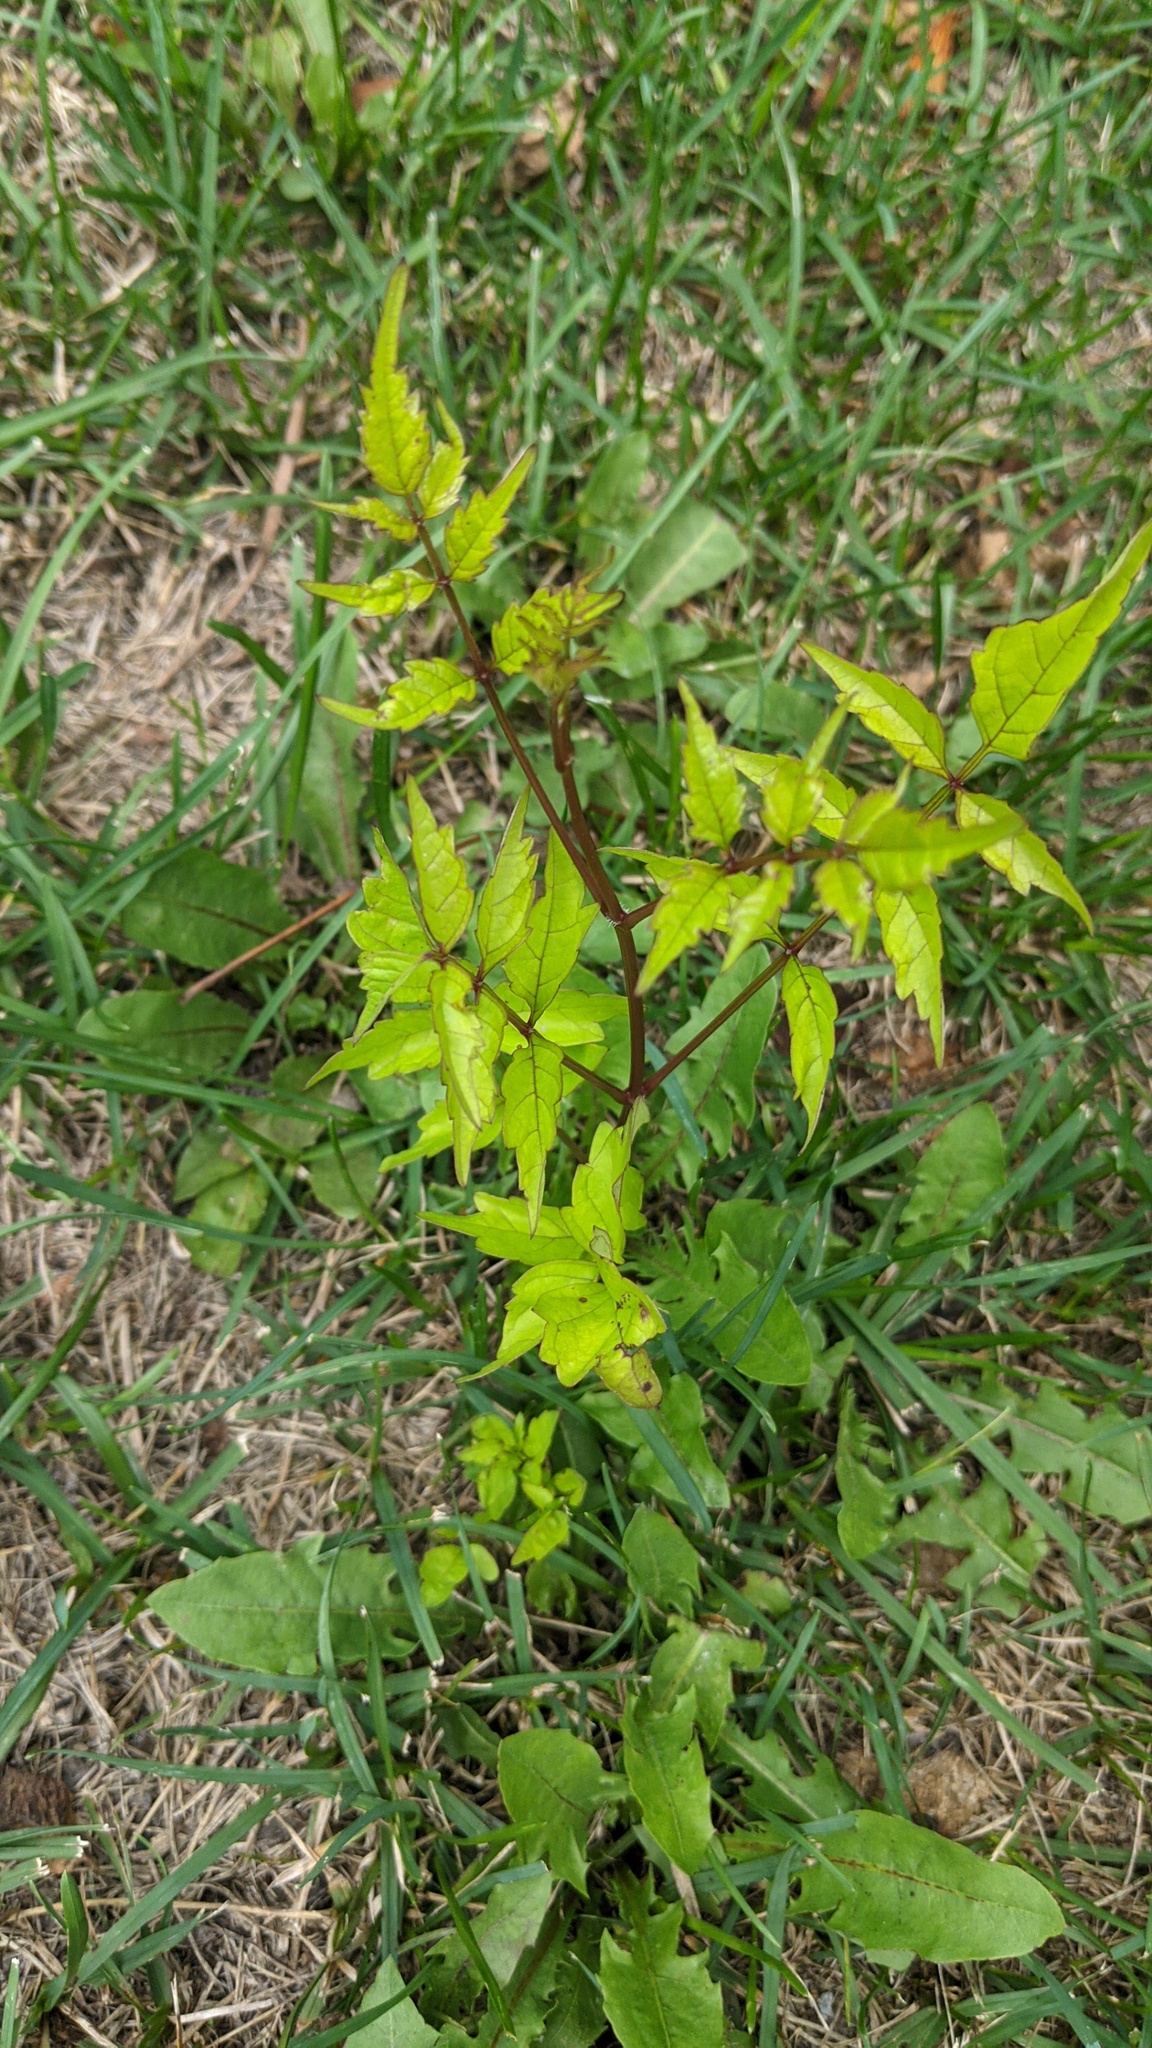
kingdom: Plantae
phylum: Tracheophyta
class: Magnoliopsida
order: Lamiales
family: Bignoniaceae
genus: Campsis
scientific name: Campsis radicans
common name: Trumpet-creeper
